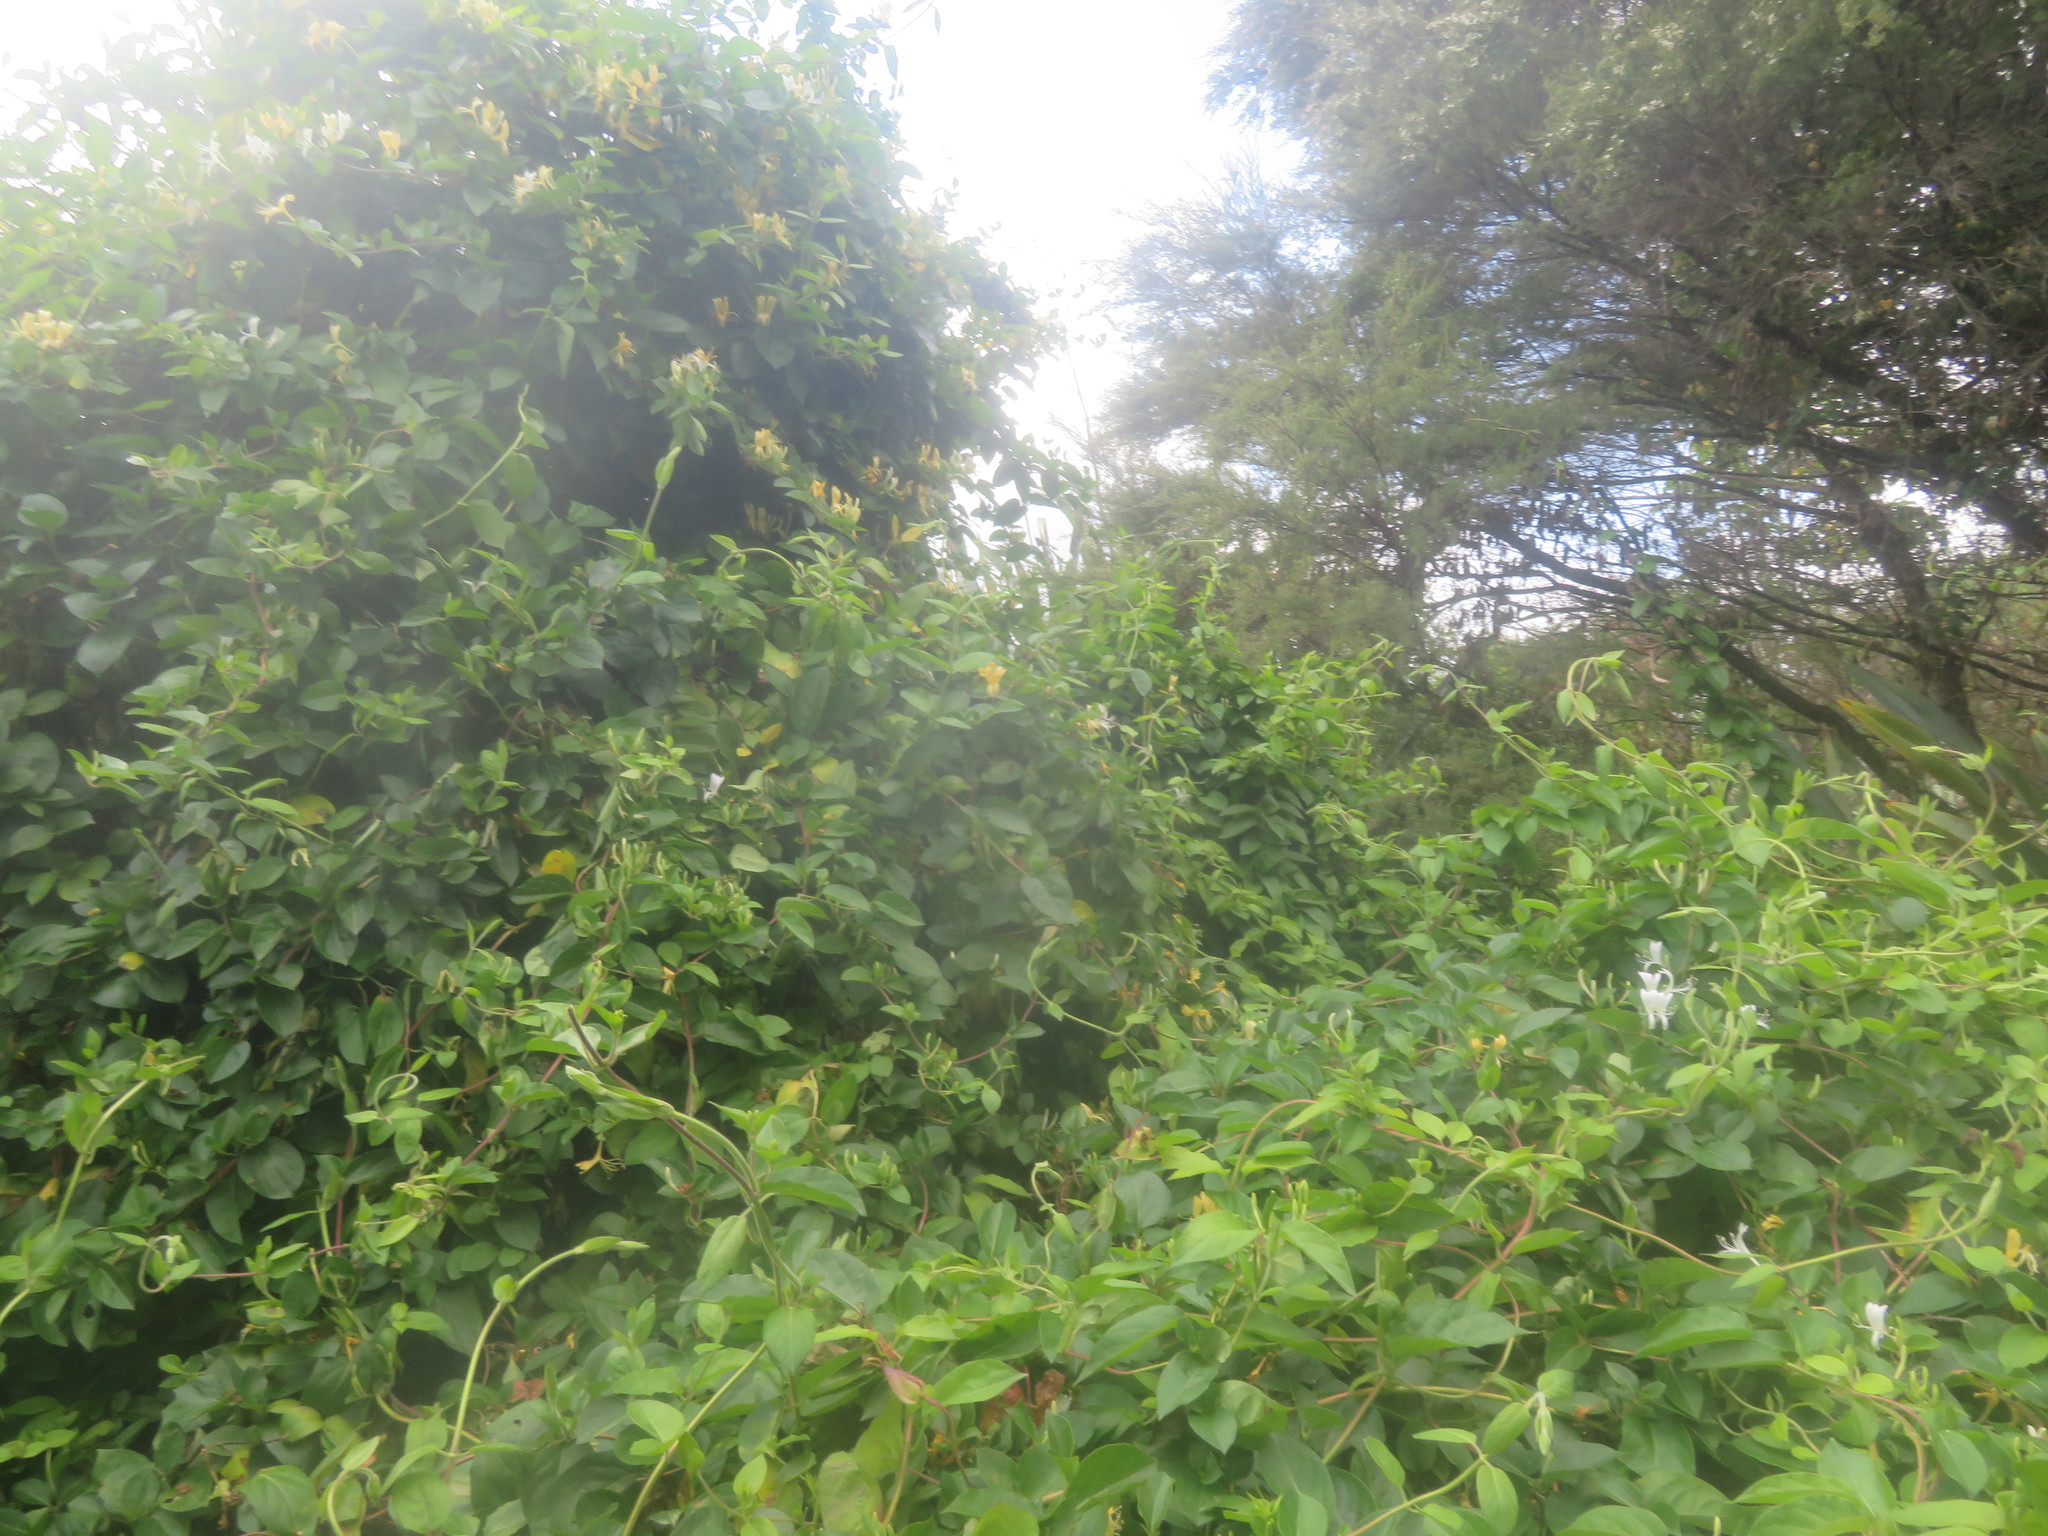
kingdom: Plantae
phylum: Tracheophyta
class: Magnoliopsida
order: Myrtales
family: Myrtaceae
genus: Leptospermum
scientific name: Leptospermum scoparium
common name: Broom tea-tree
